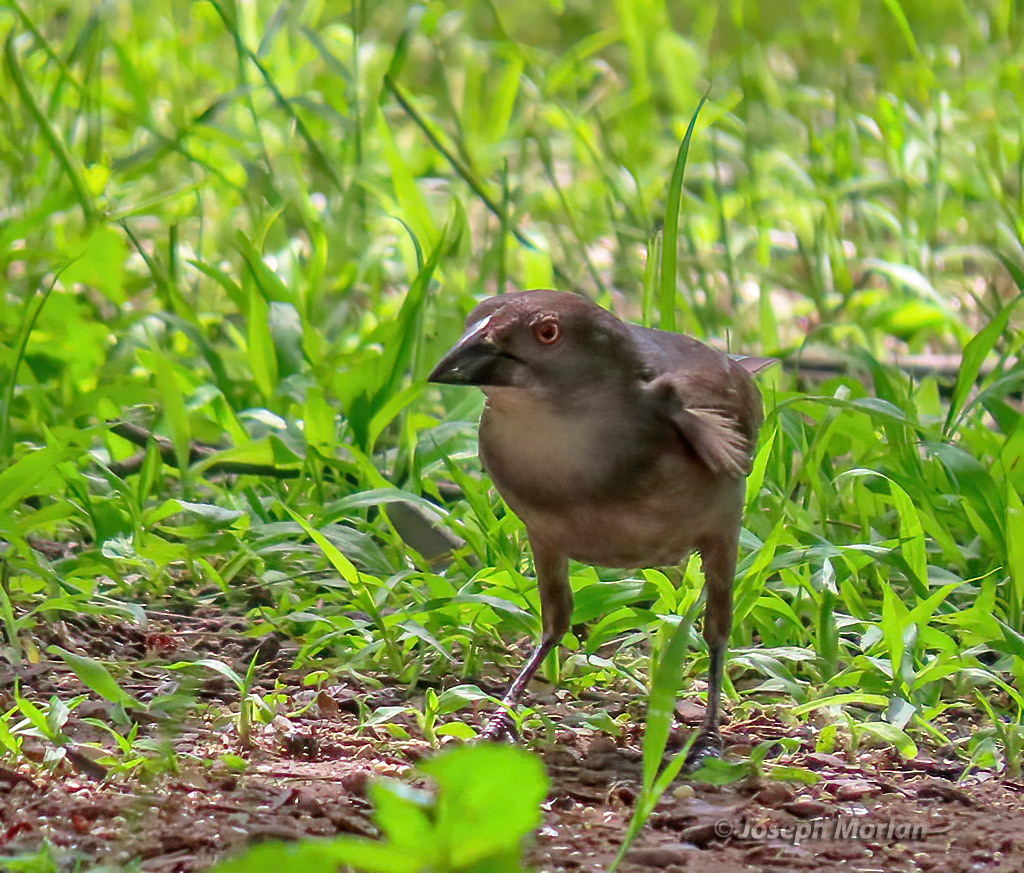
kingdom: Animalia
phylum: Chordata
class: Aves
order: Passeriformes
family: Icteridae
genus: Molothrus
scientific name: Molothrus aeneus
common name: Bronzed cowbird
